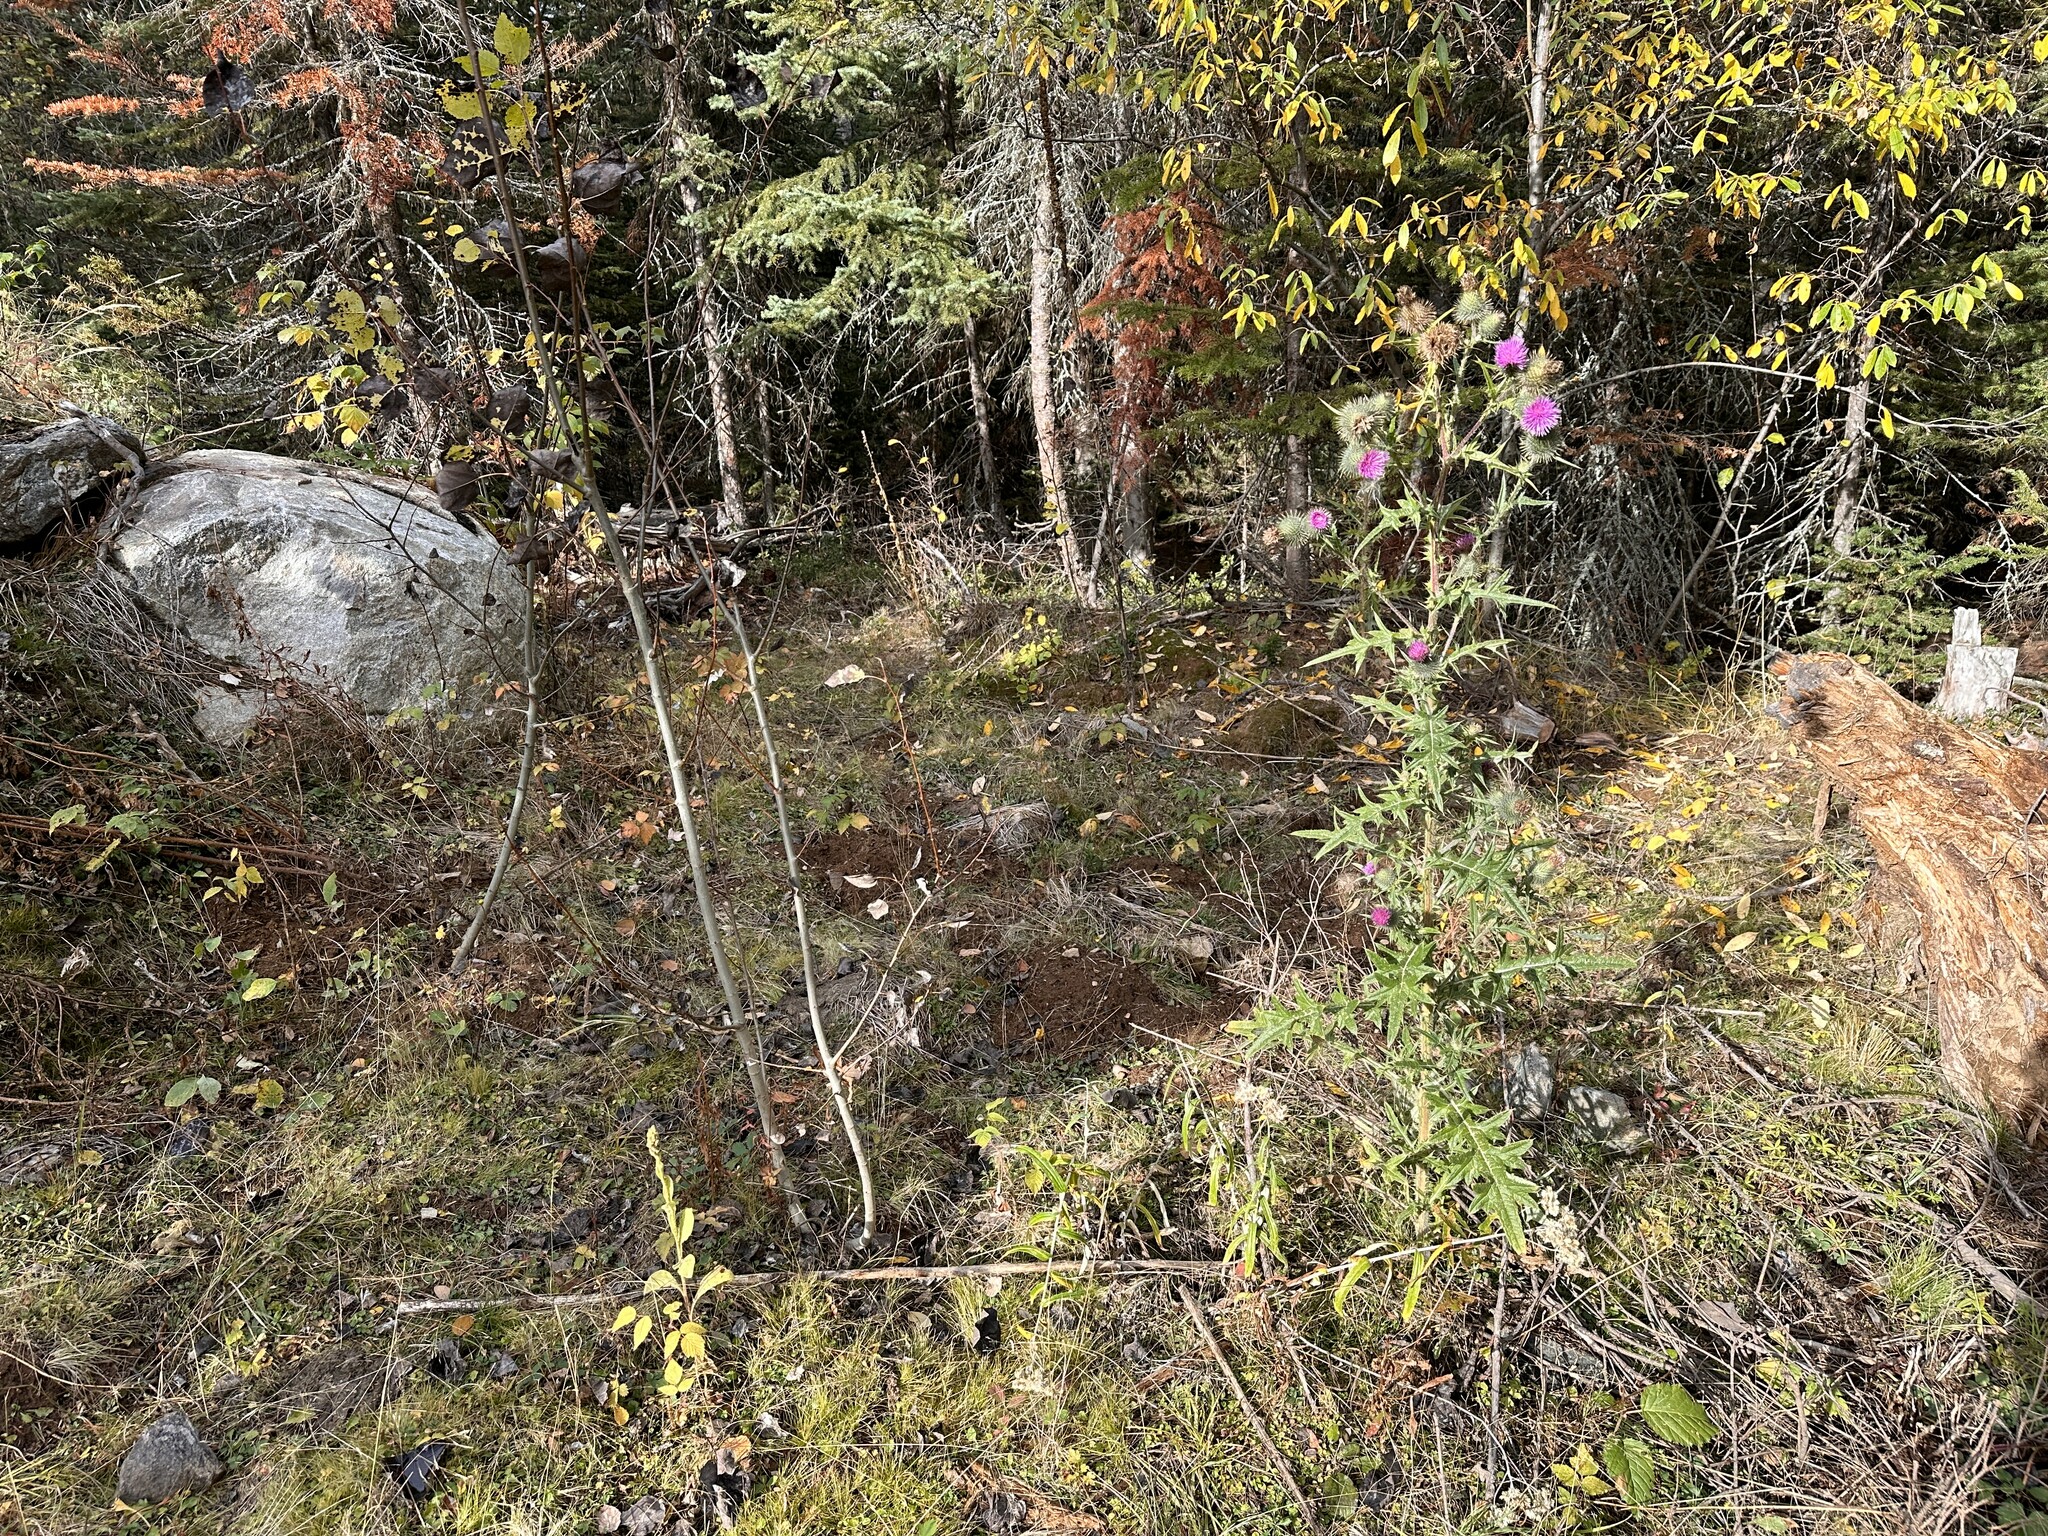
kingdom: Plantae
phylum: Tracheophyta
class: Magnoliopsida
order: Asterales
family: Asteraceae
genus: Cirsium
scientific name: Cirsium vulgare
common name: Bull thistle
